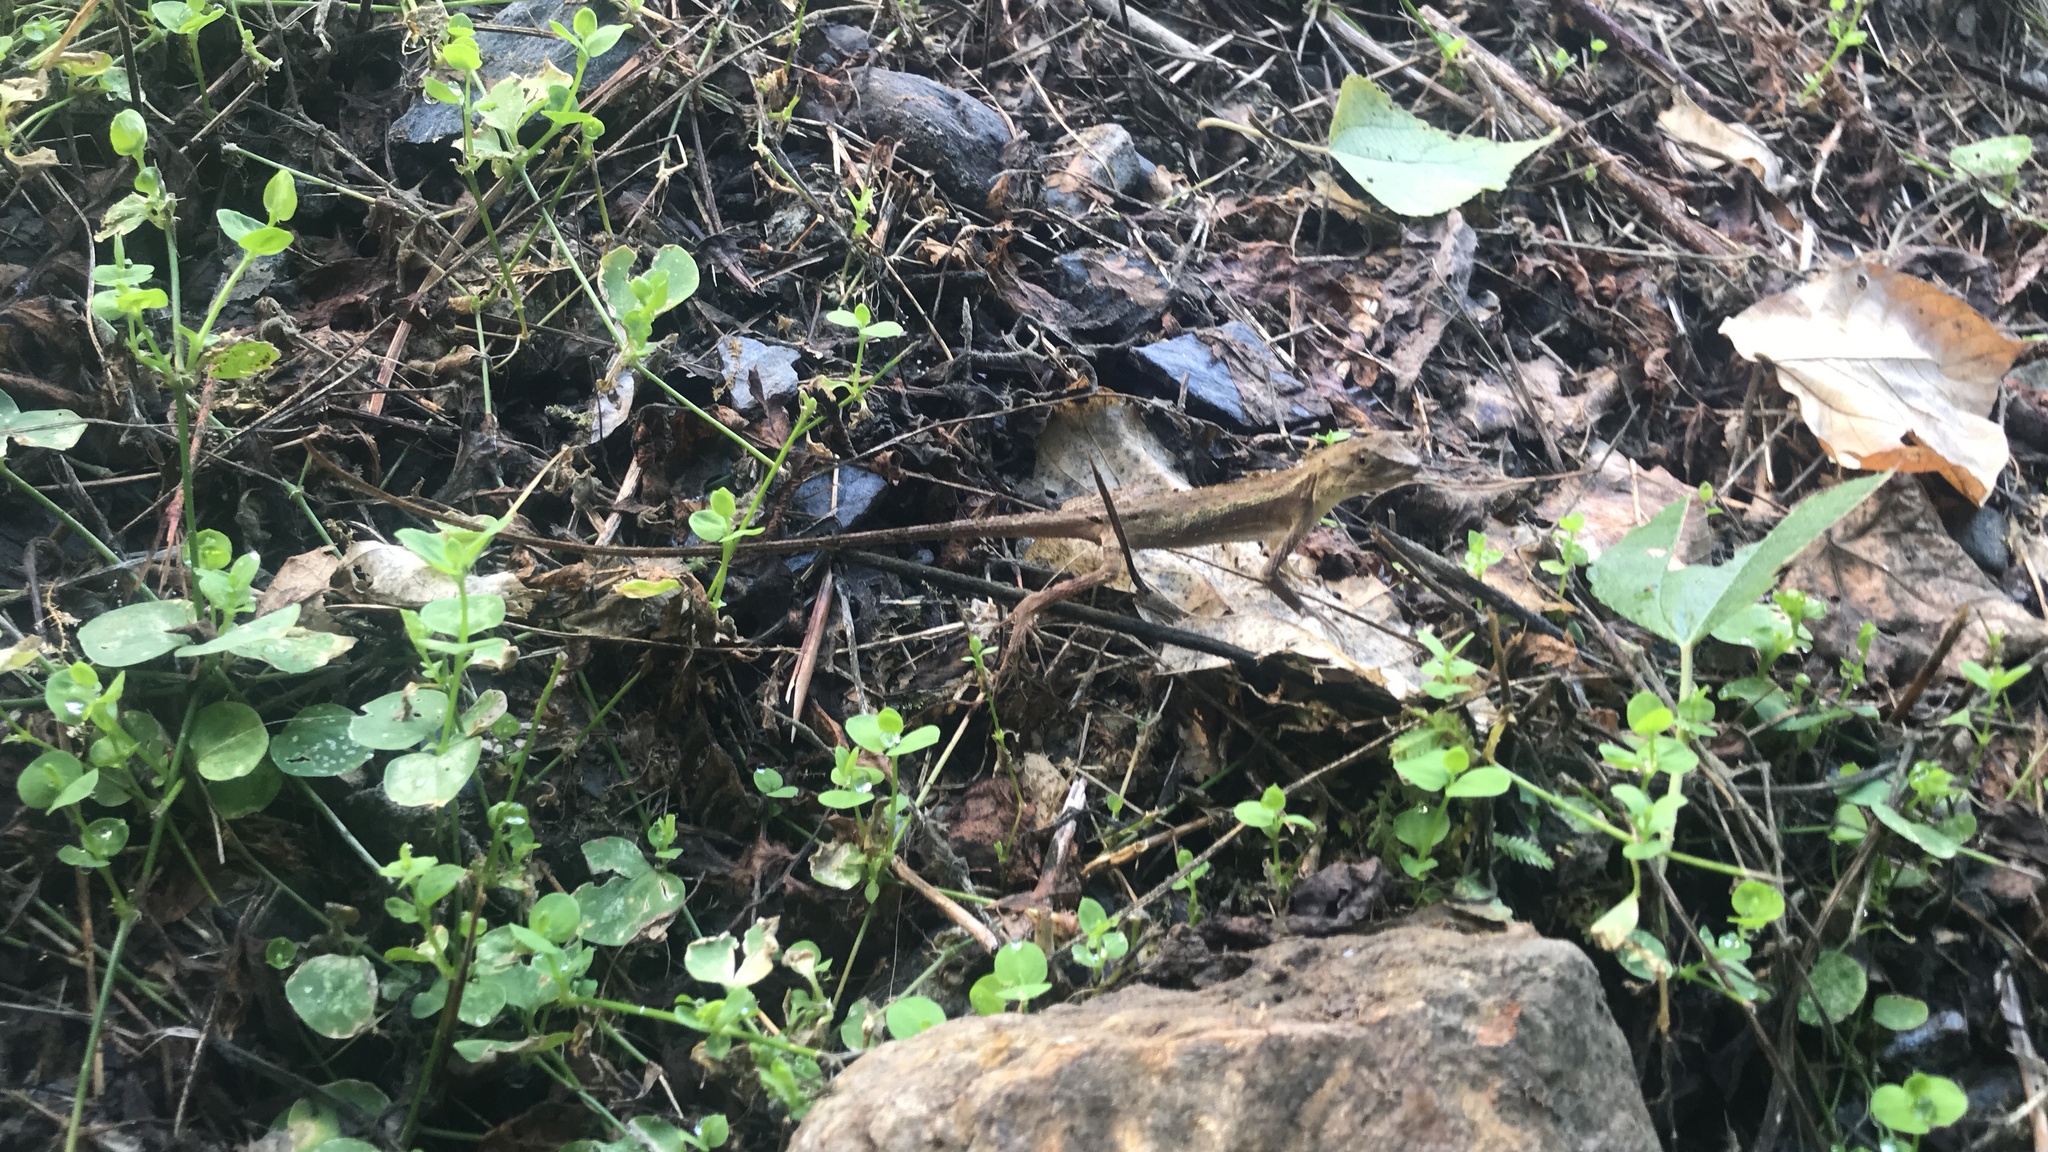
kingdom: Animalia
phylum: Chordata
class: Squamata
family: Agamidae
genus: Diploderma
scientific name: Diploderma swinhonis
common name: Taiwan japalure
